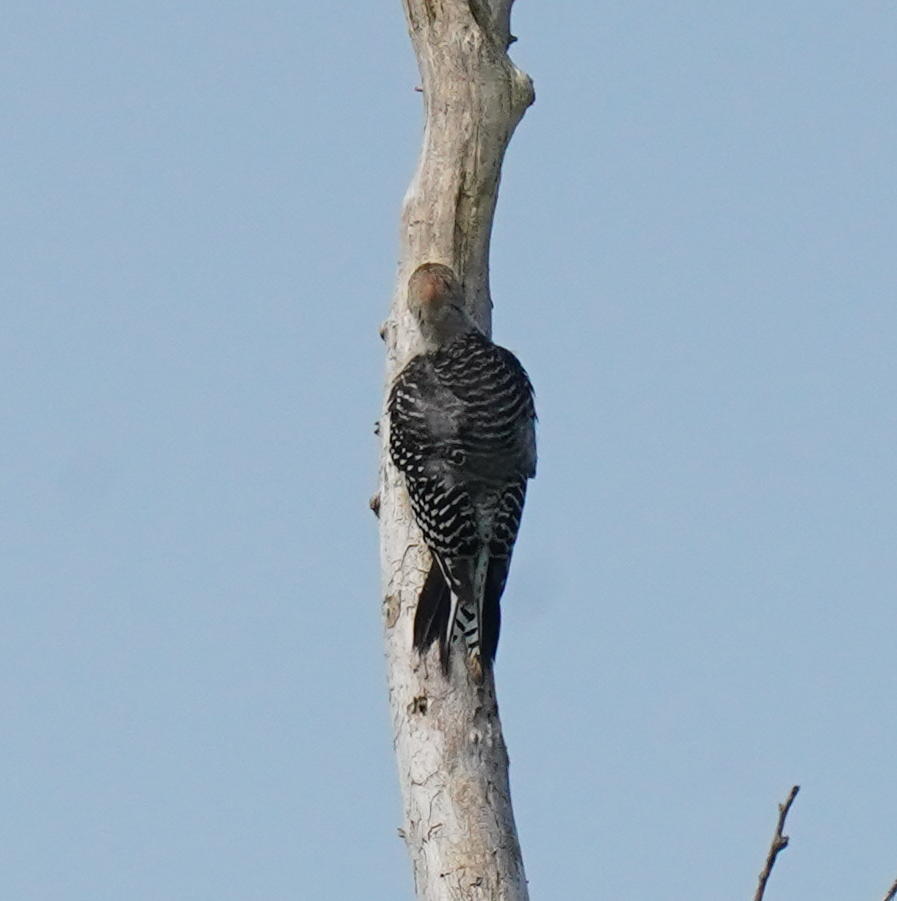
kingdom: Animalia
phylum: Chordata
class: Aves
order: Piciformes
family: Picidae
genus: Melanerpes
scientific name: Melanerpes carolinus
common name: Red-bellied woodpecker
